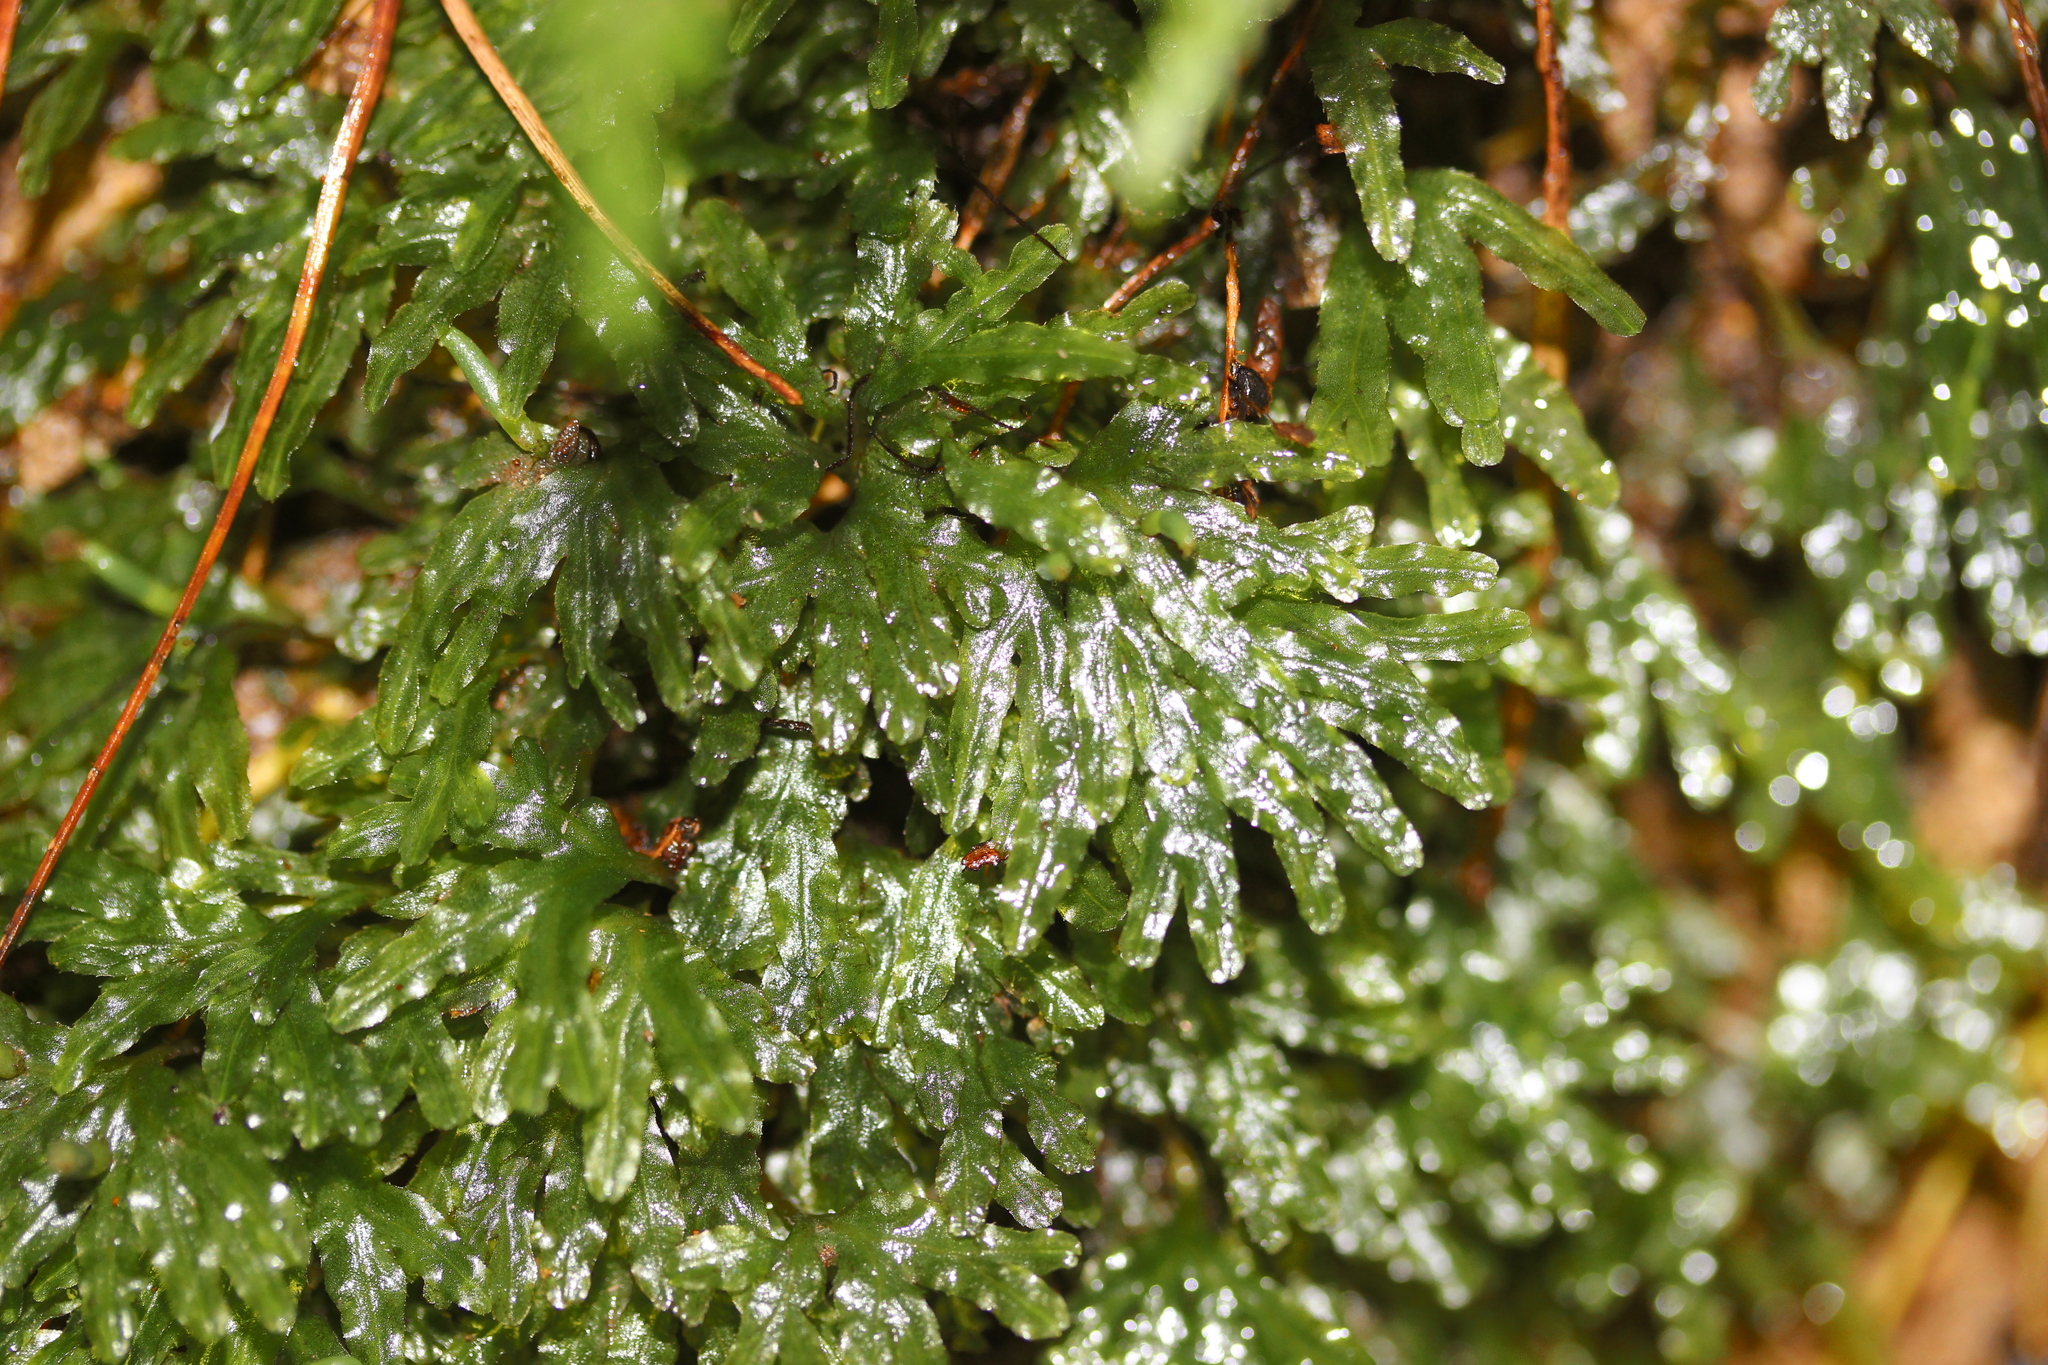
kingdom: Plantae
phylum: Marchantiophyta
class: Jungermanniopsida
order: Pallaviciniales
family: Pallaviciniaceae
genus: Symphyogyna
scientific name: Symphyogyna hymenophyllum
